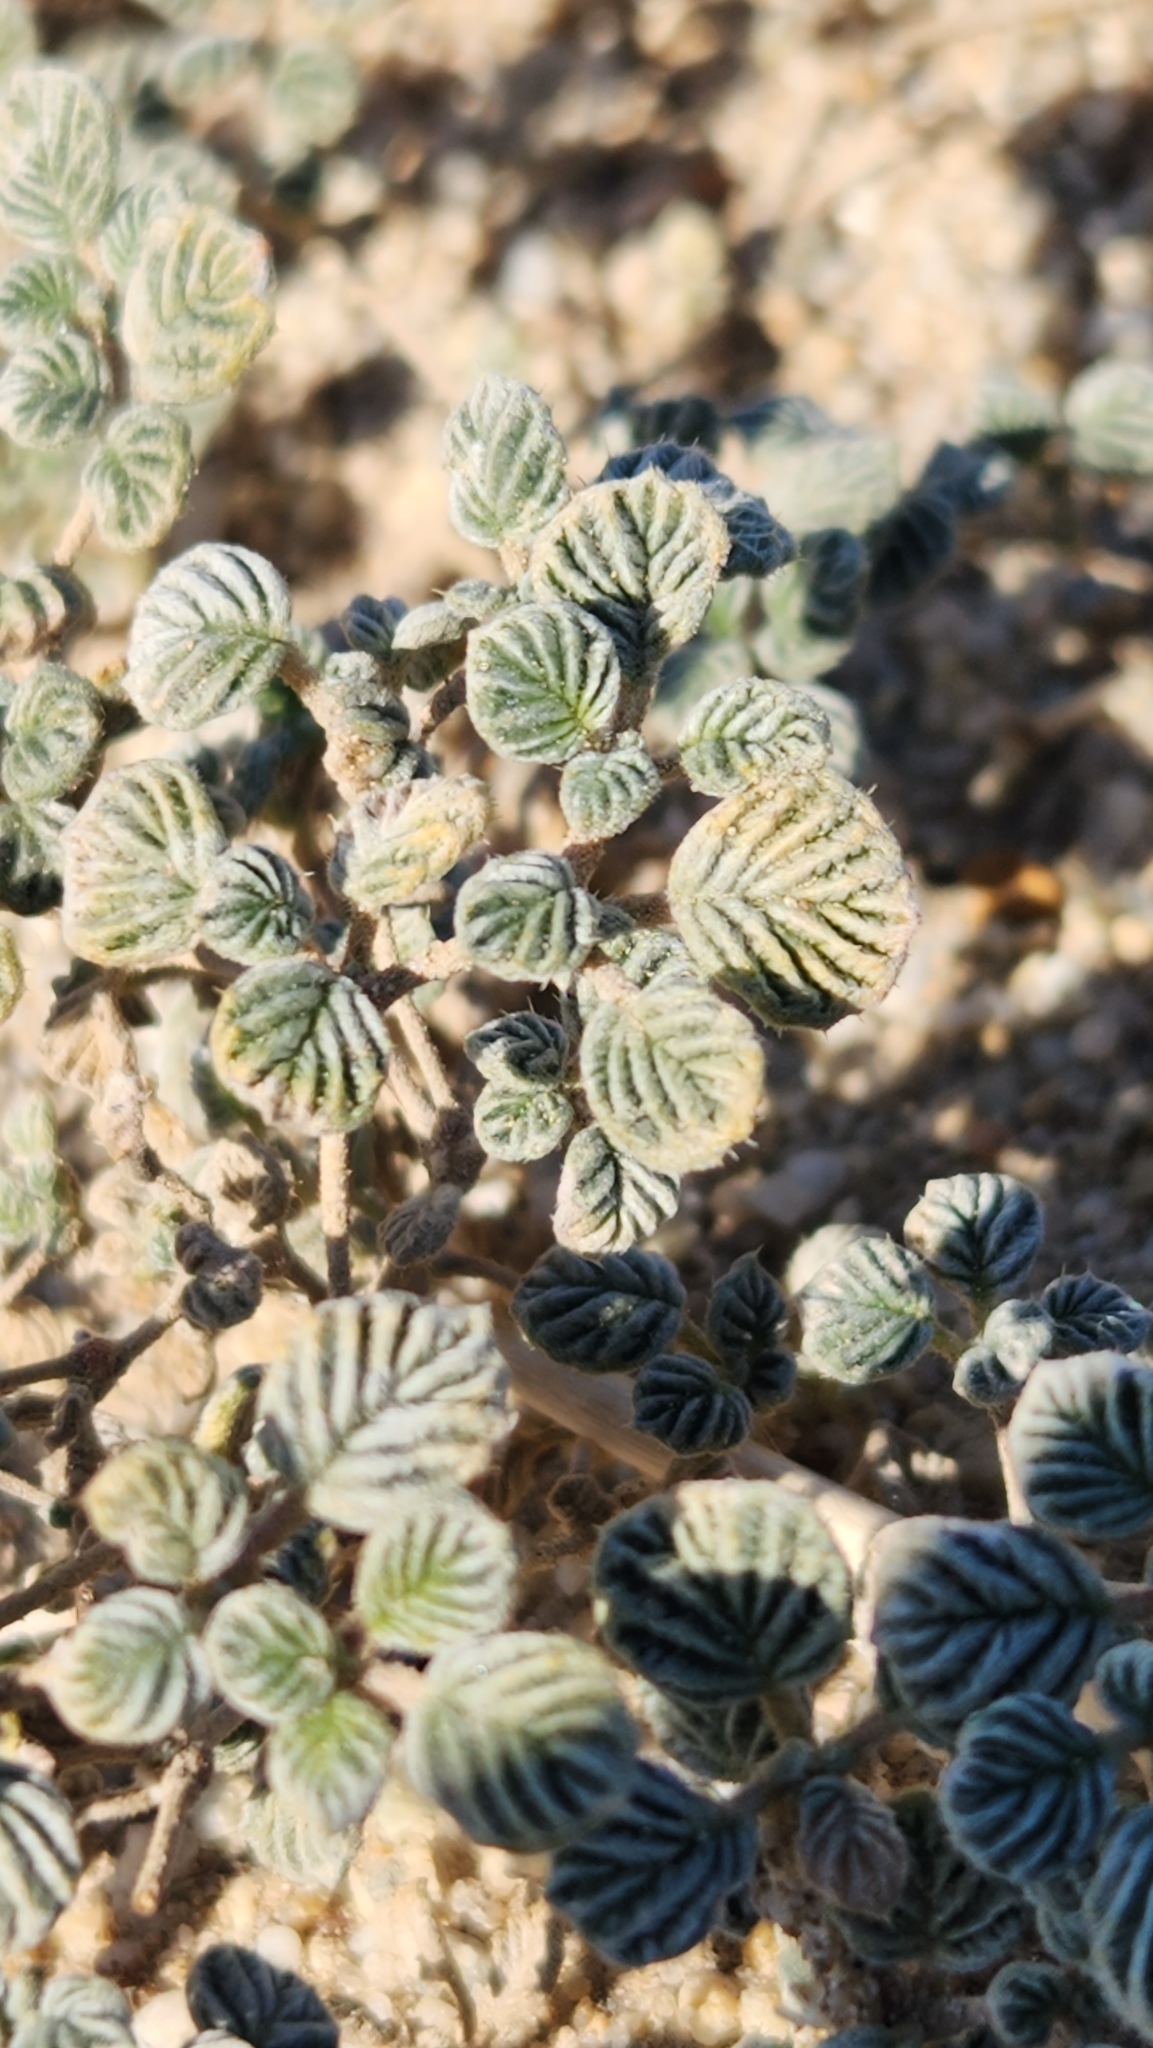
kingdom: Plantae
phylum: Tracheophyta
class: Magnoliopsida
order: Boraginales
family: Ehretiaceae
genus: Tiquilia
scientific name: Tiquilia plicata
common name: Fan-leaf tiquilia
